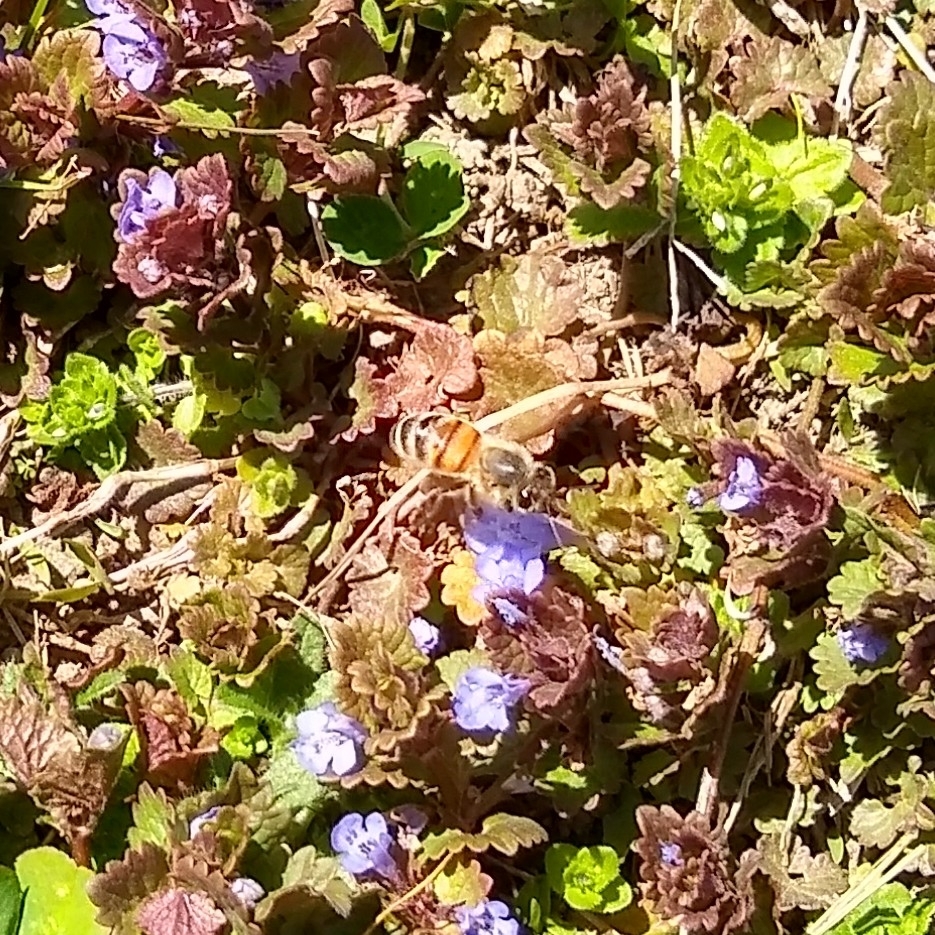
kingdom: Animalia
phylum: Arthropoda
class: Insecta
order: Hymenoptera
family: Apidae
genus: Apis
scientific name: Apis mellifera
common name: Honey bee
